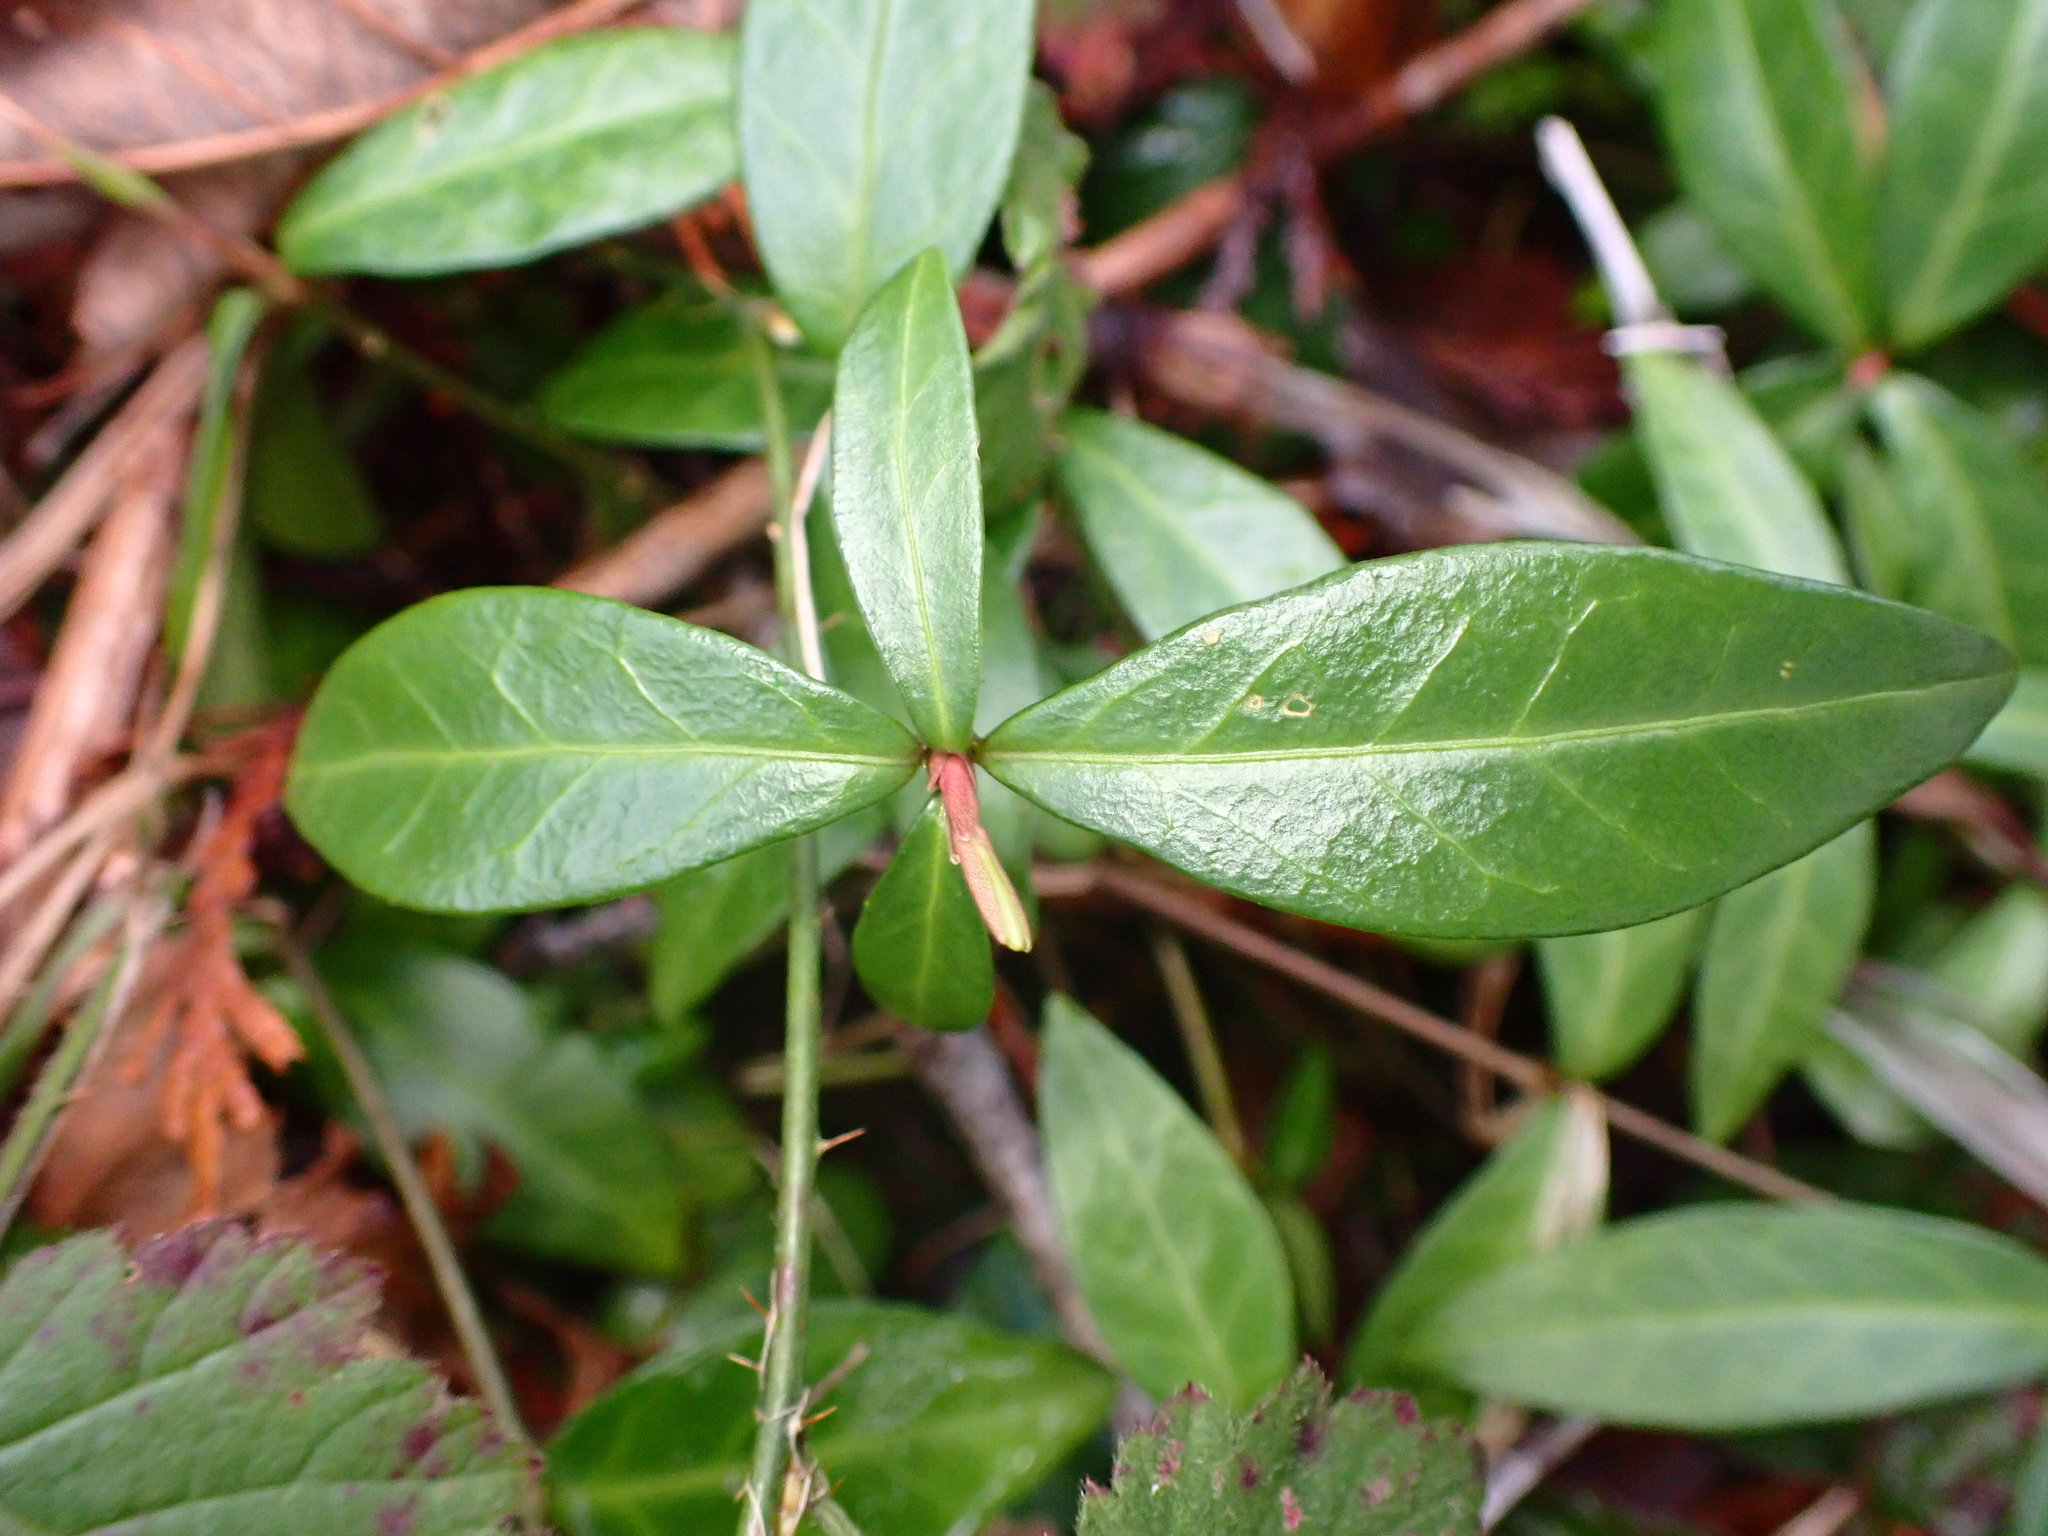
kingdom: Plantae
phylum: Tracheophyta
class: Magnoliopsida
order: Gentianales
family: Apocynaceae
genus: Vinca
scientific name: Vinca minor
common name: Lesser periwinkle
